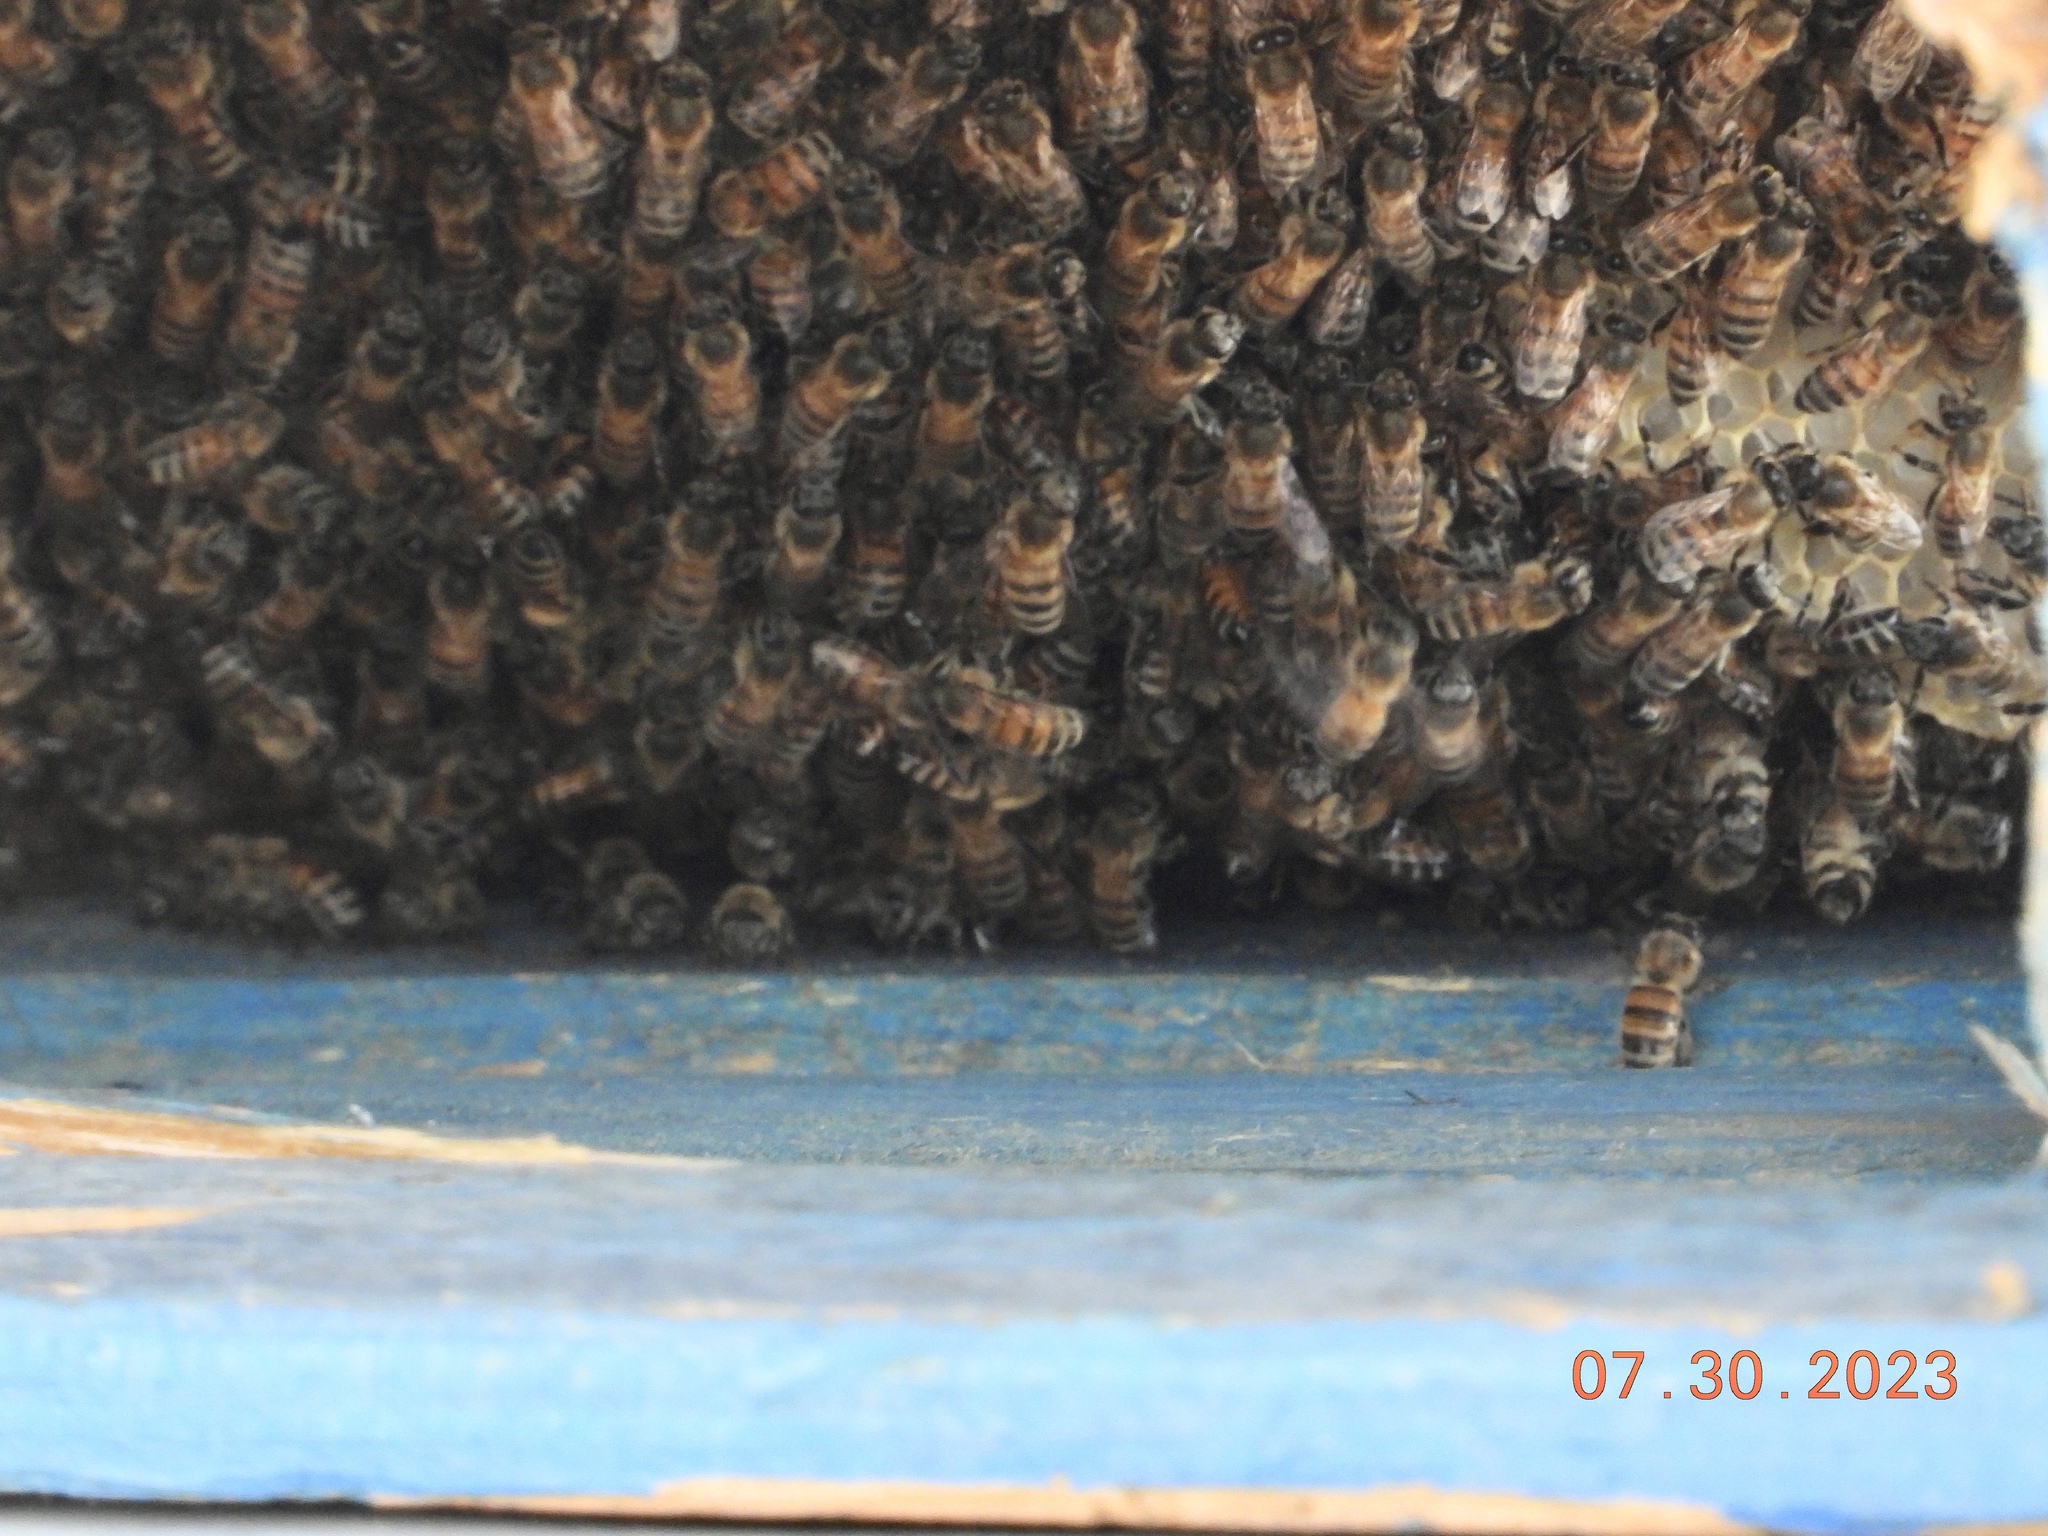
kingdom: Animalia
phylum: Arthropoda
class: Insecta
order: Hymenoptera
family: Apidae
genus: Apis
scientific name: Apis mellifera
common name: Honey bee
